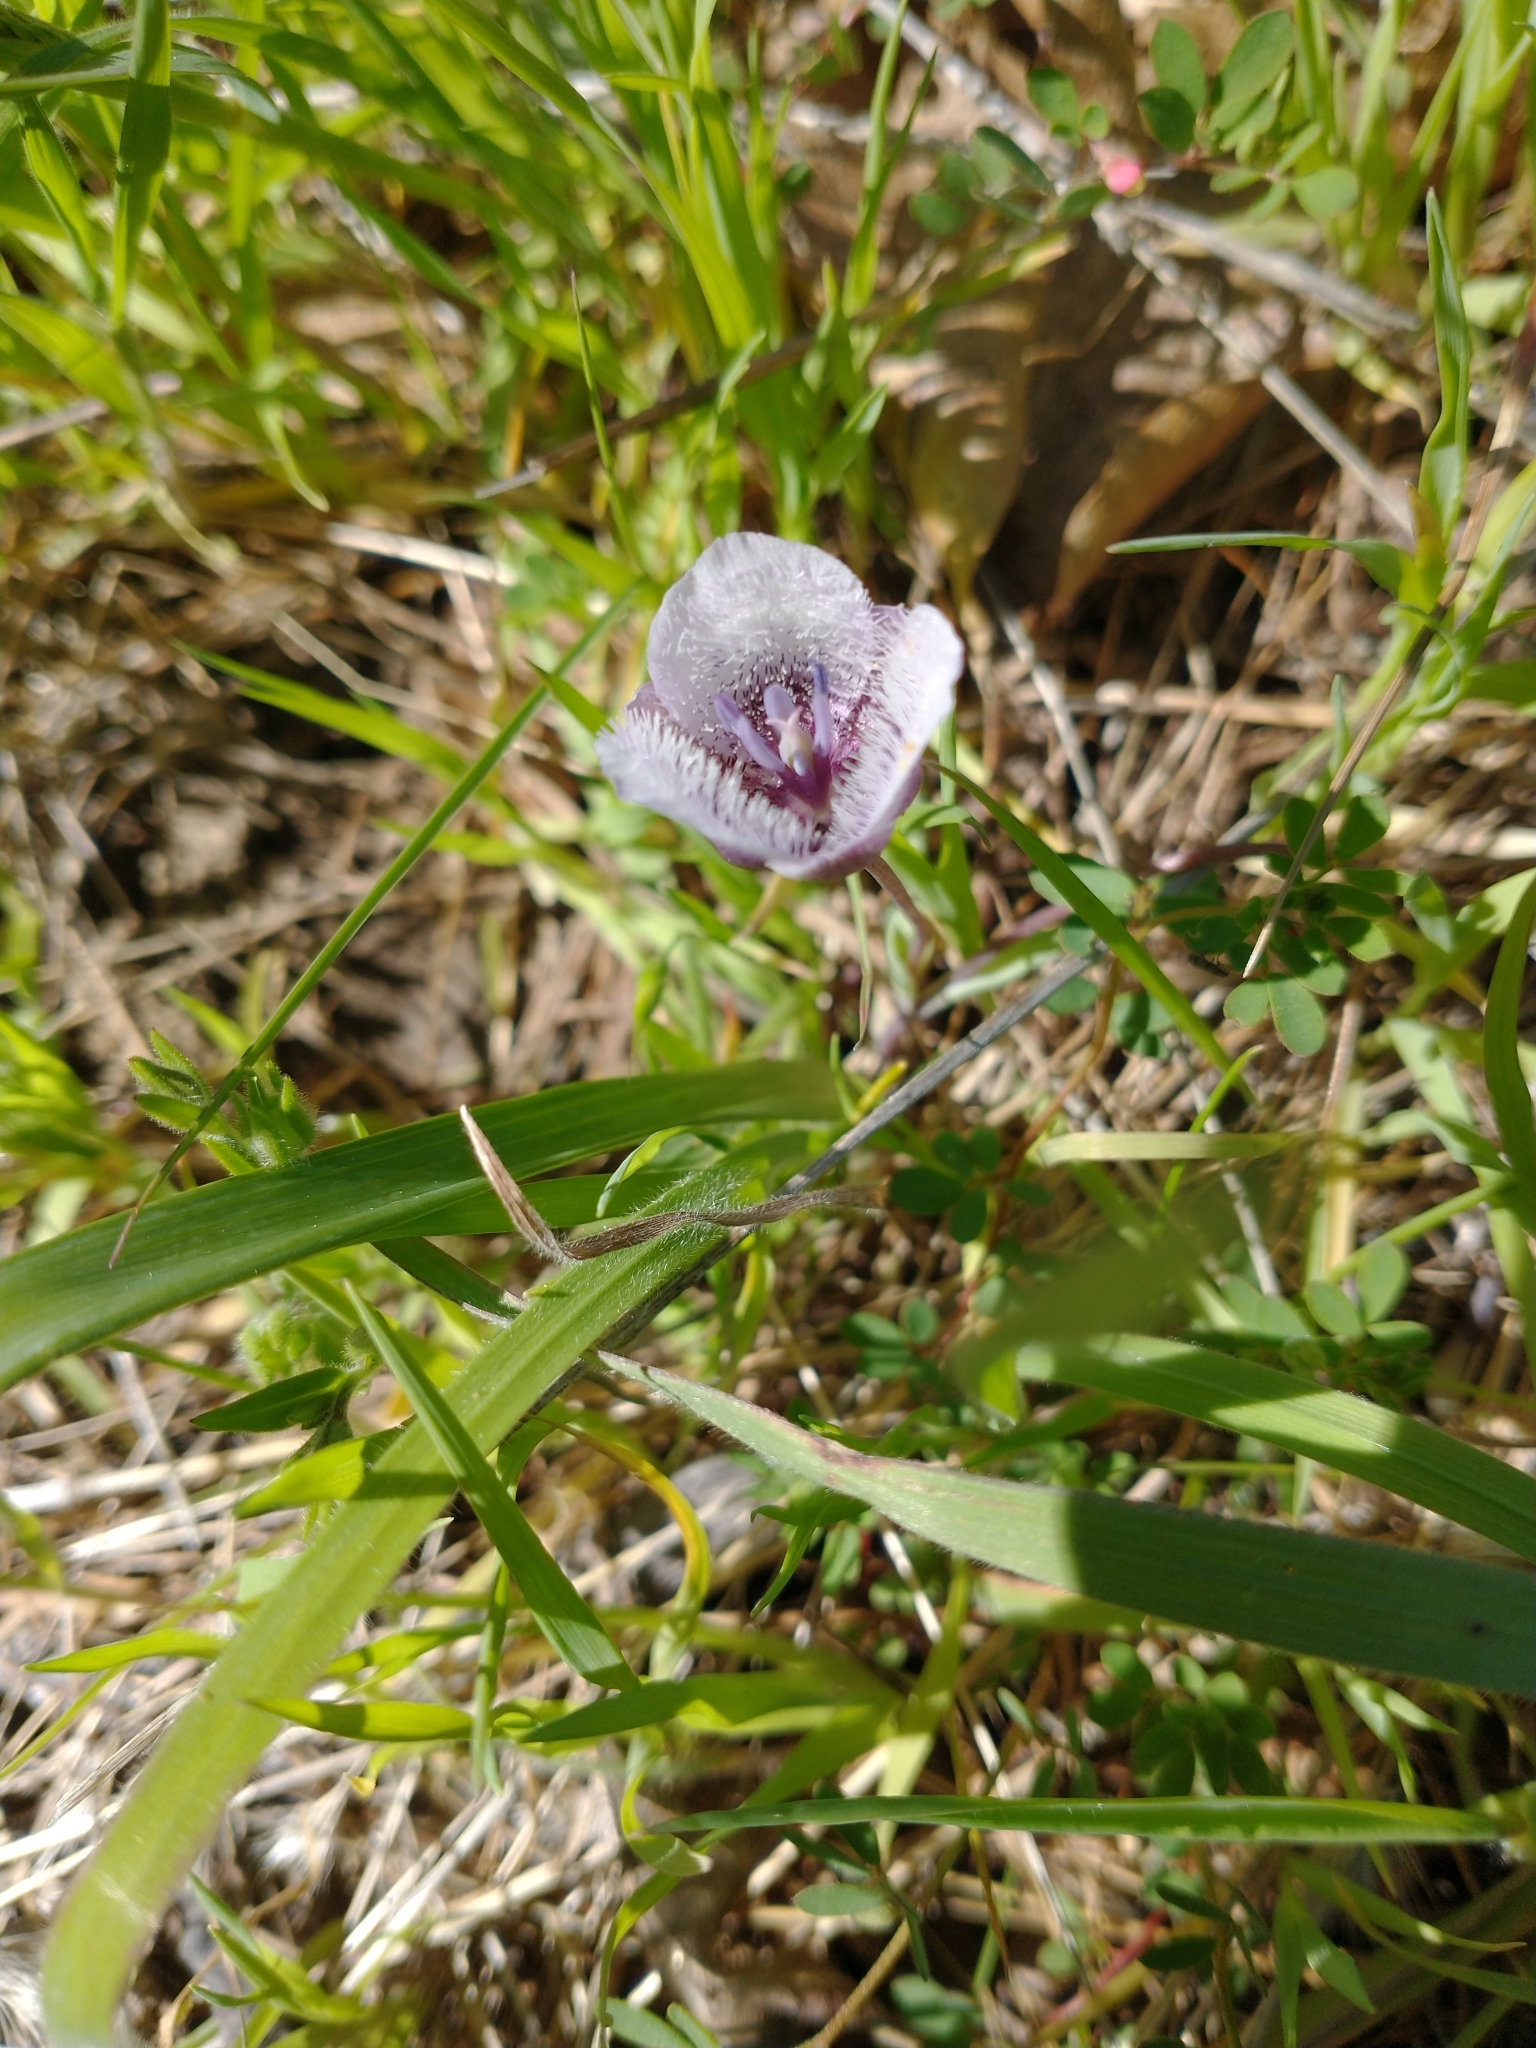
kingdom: Plantae
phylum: Tracheophyta
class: Liliopsida
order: Liliales
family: Liliaceae
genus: Calochortus
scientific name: Calochortus tolmiei
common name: Pussy-ears
